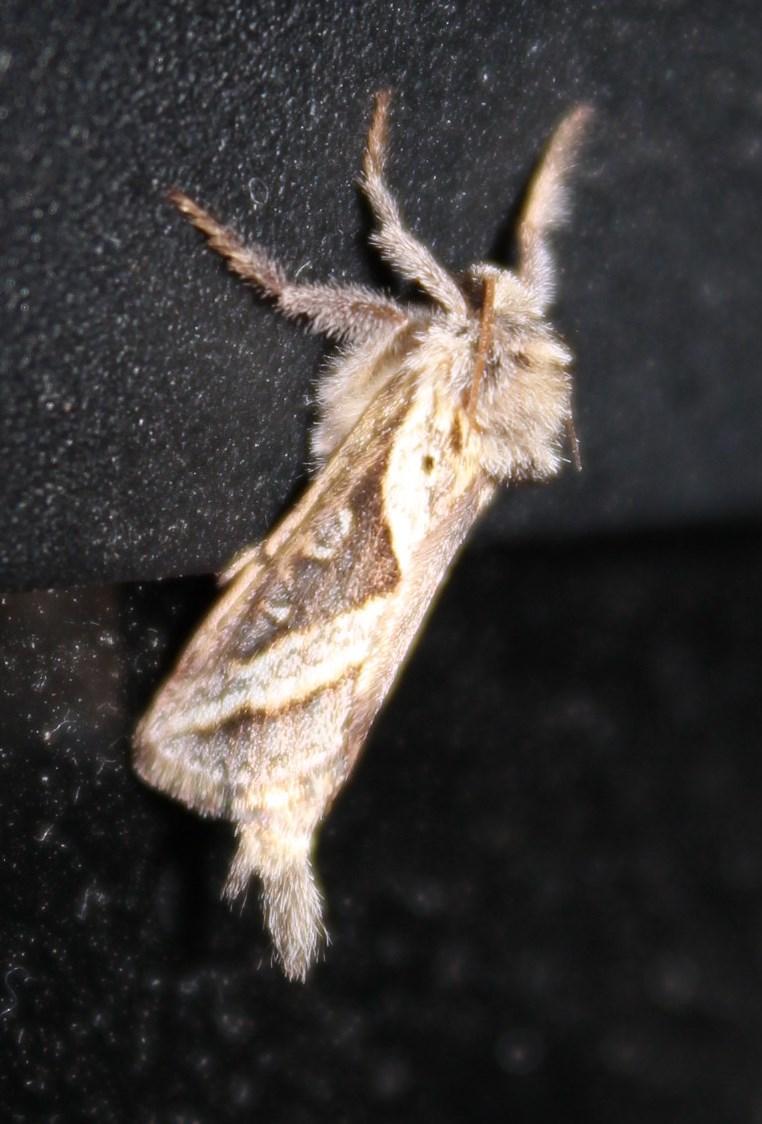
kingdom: Animalia
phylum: Arthropoda
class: Insecta
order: Lepidoptera
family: Hepialidae
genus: Eudalaca
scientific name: Eudalaca orthocosma
